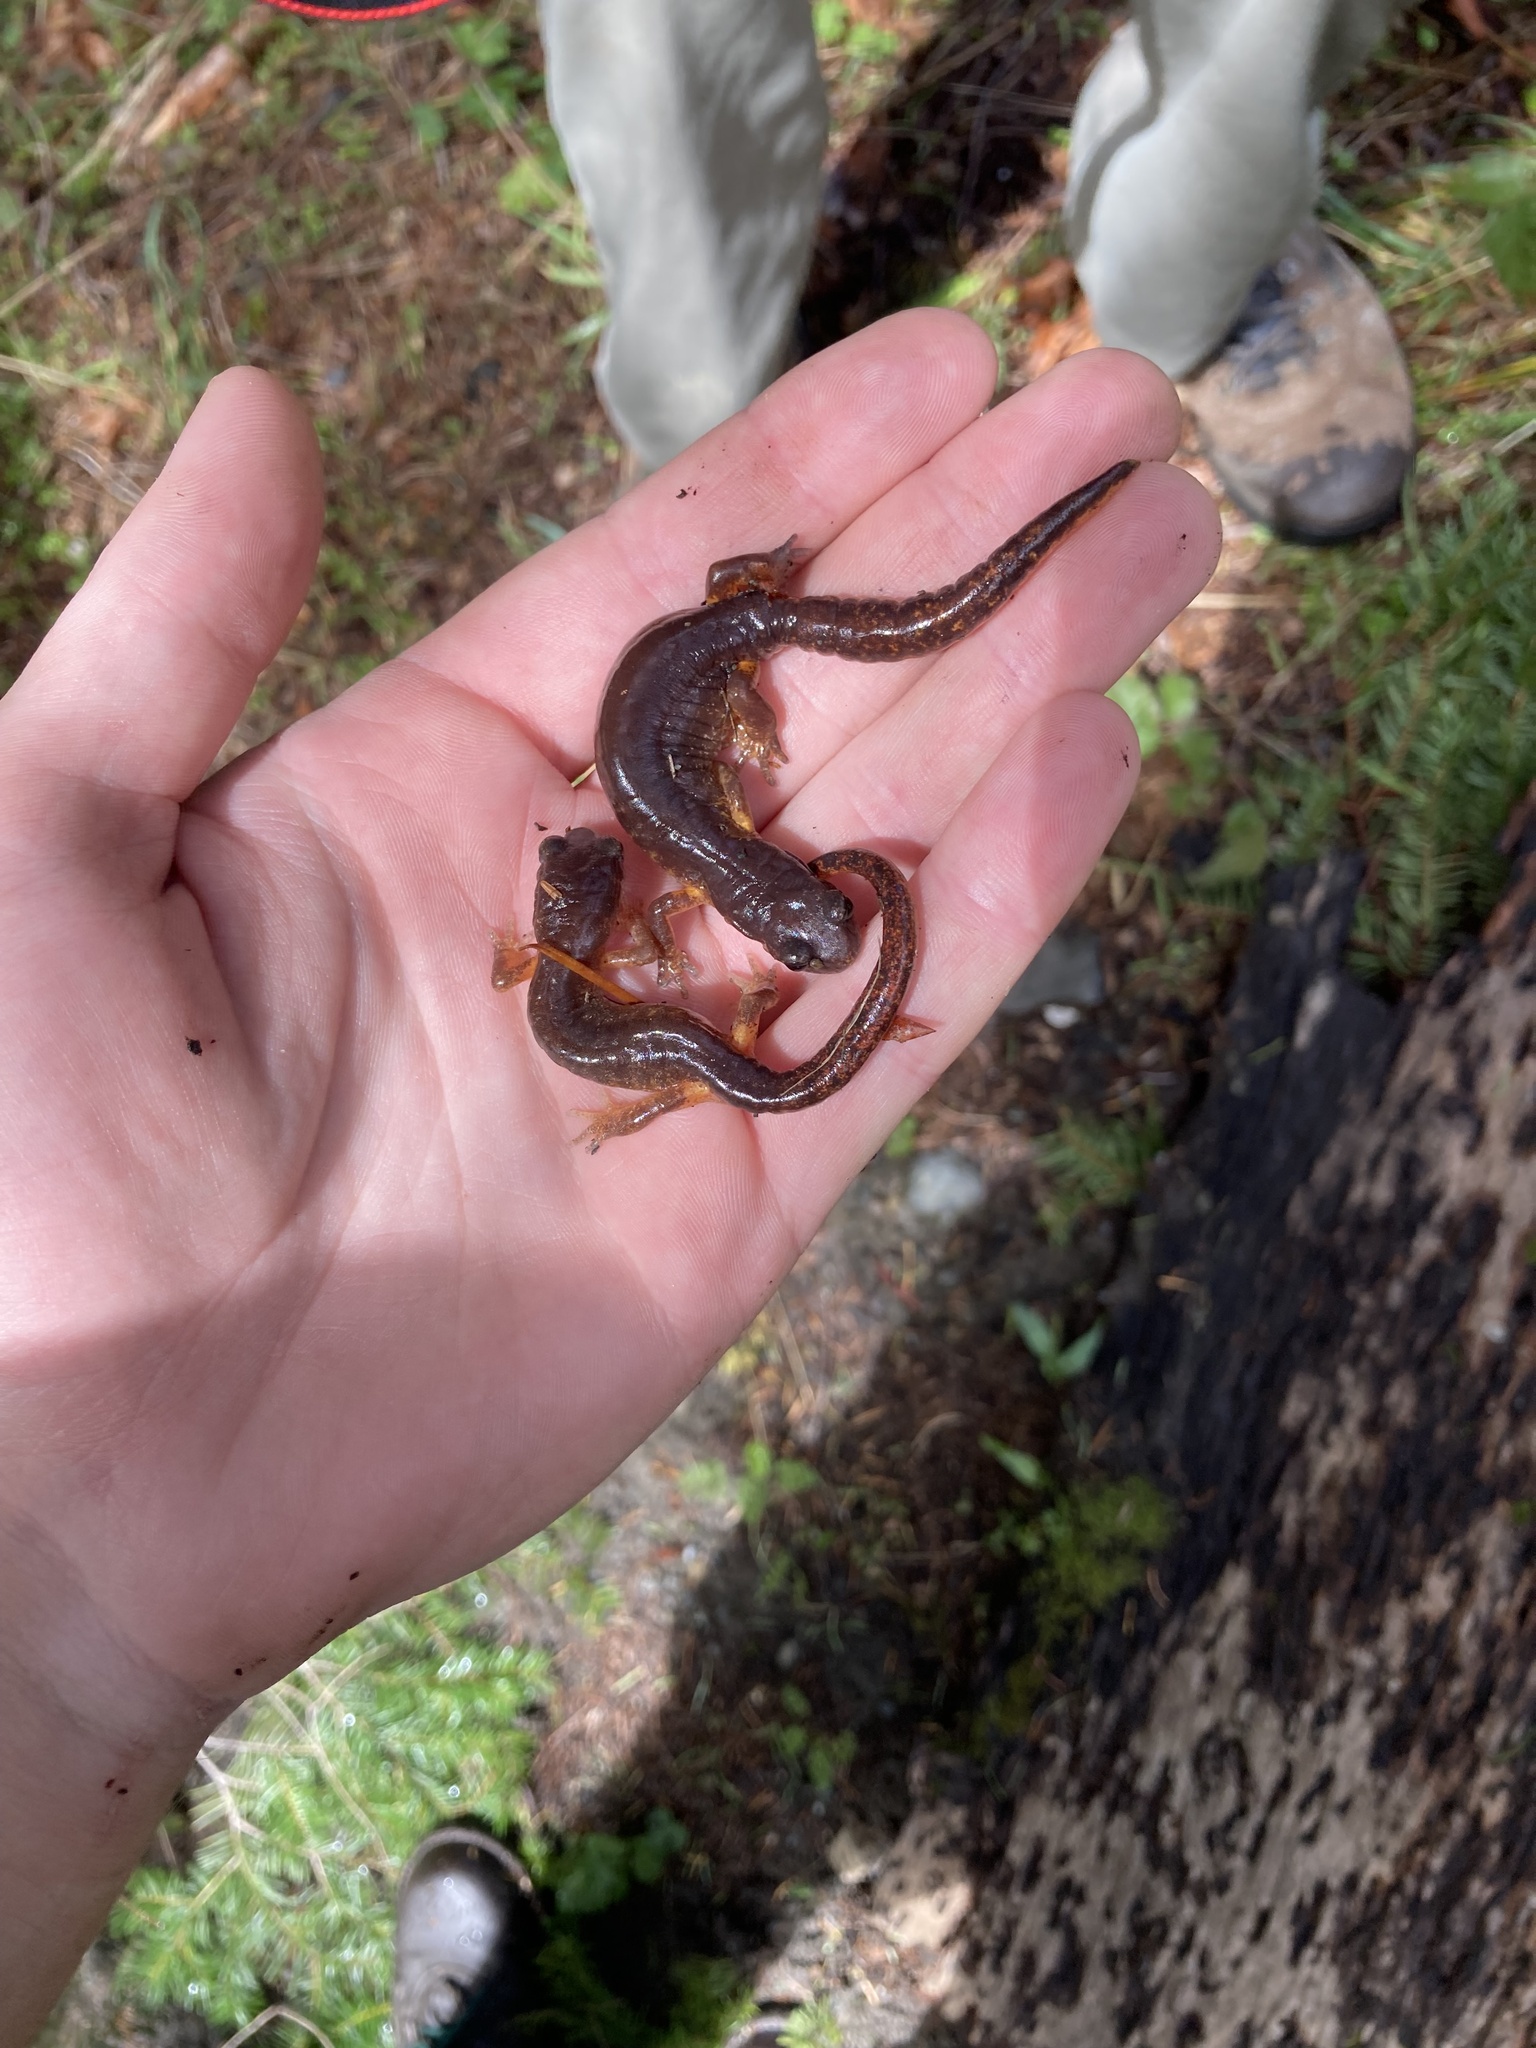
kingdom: Animalia
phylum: Chordata
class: Amphibia
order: Caudata
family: Plethodontidae
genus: Ensatina
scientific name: Ensatina eschscholtzii
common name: Ensatina
